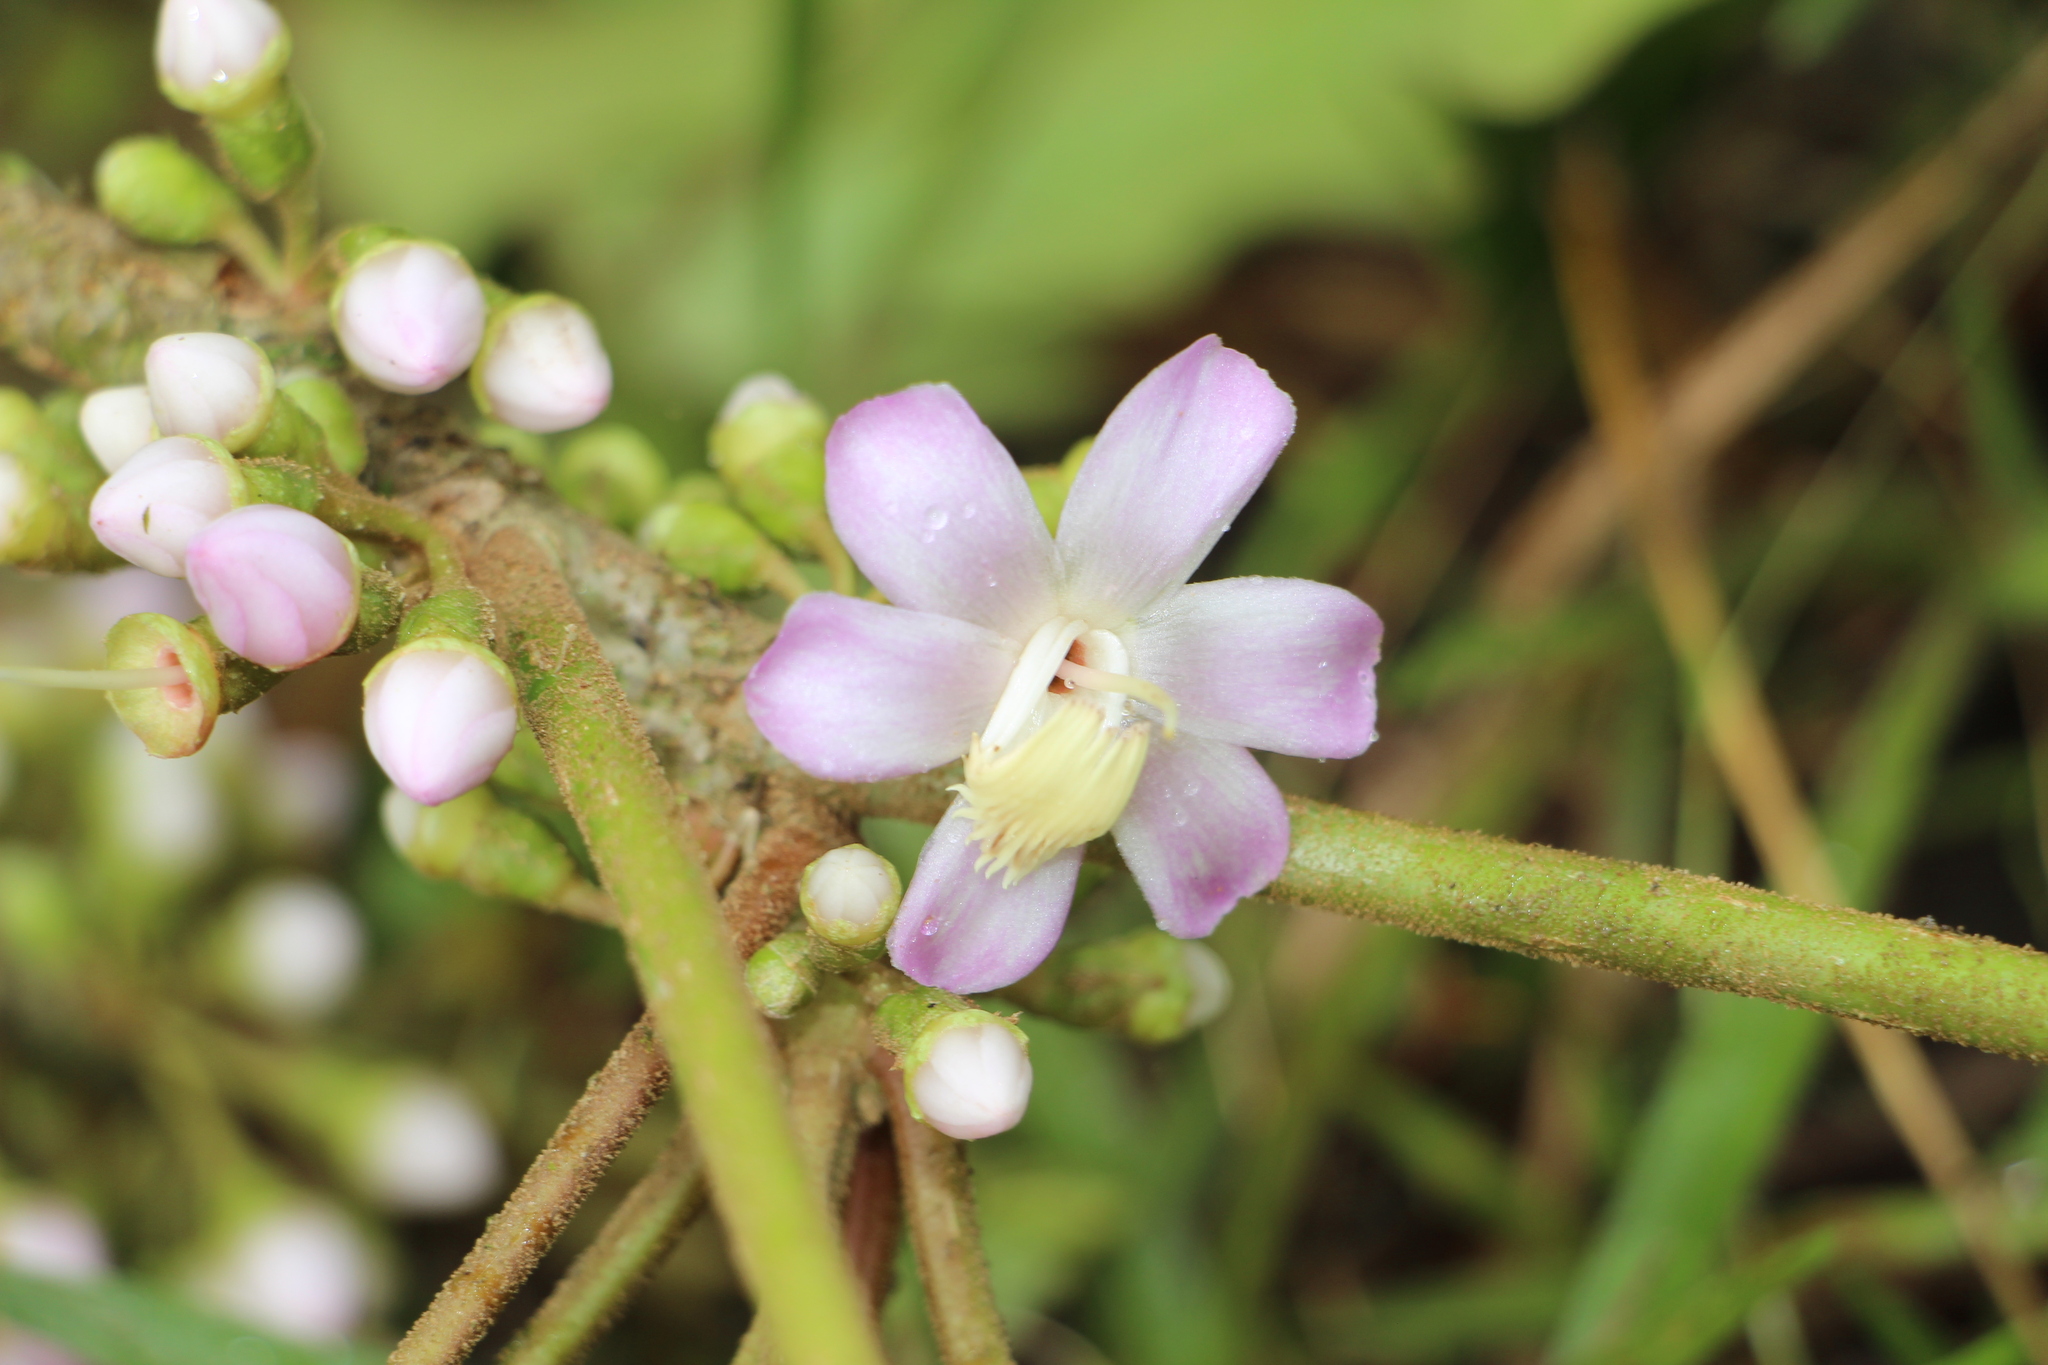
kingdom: Plantae
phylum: Tracheophyta
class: Magnoliopsida
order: Myrtales
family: Melastomataceae
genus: Blakea
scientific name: Blakea parasitica
